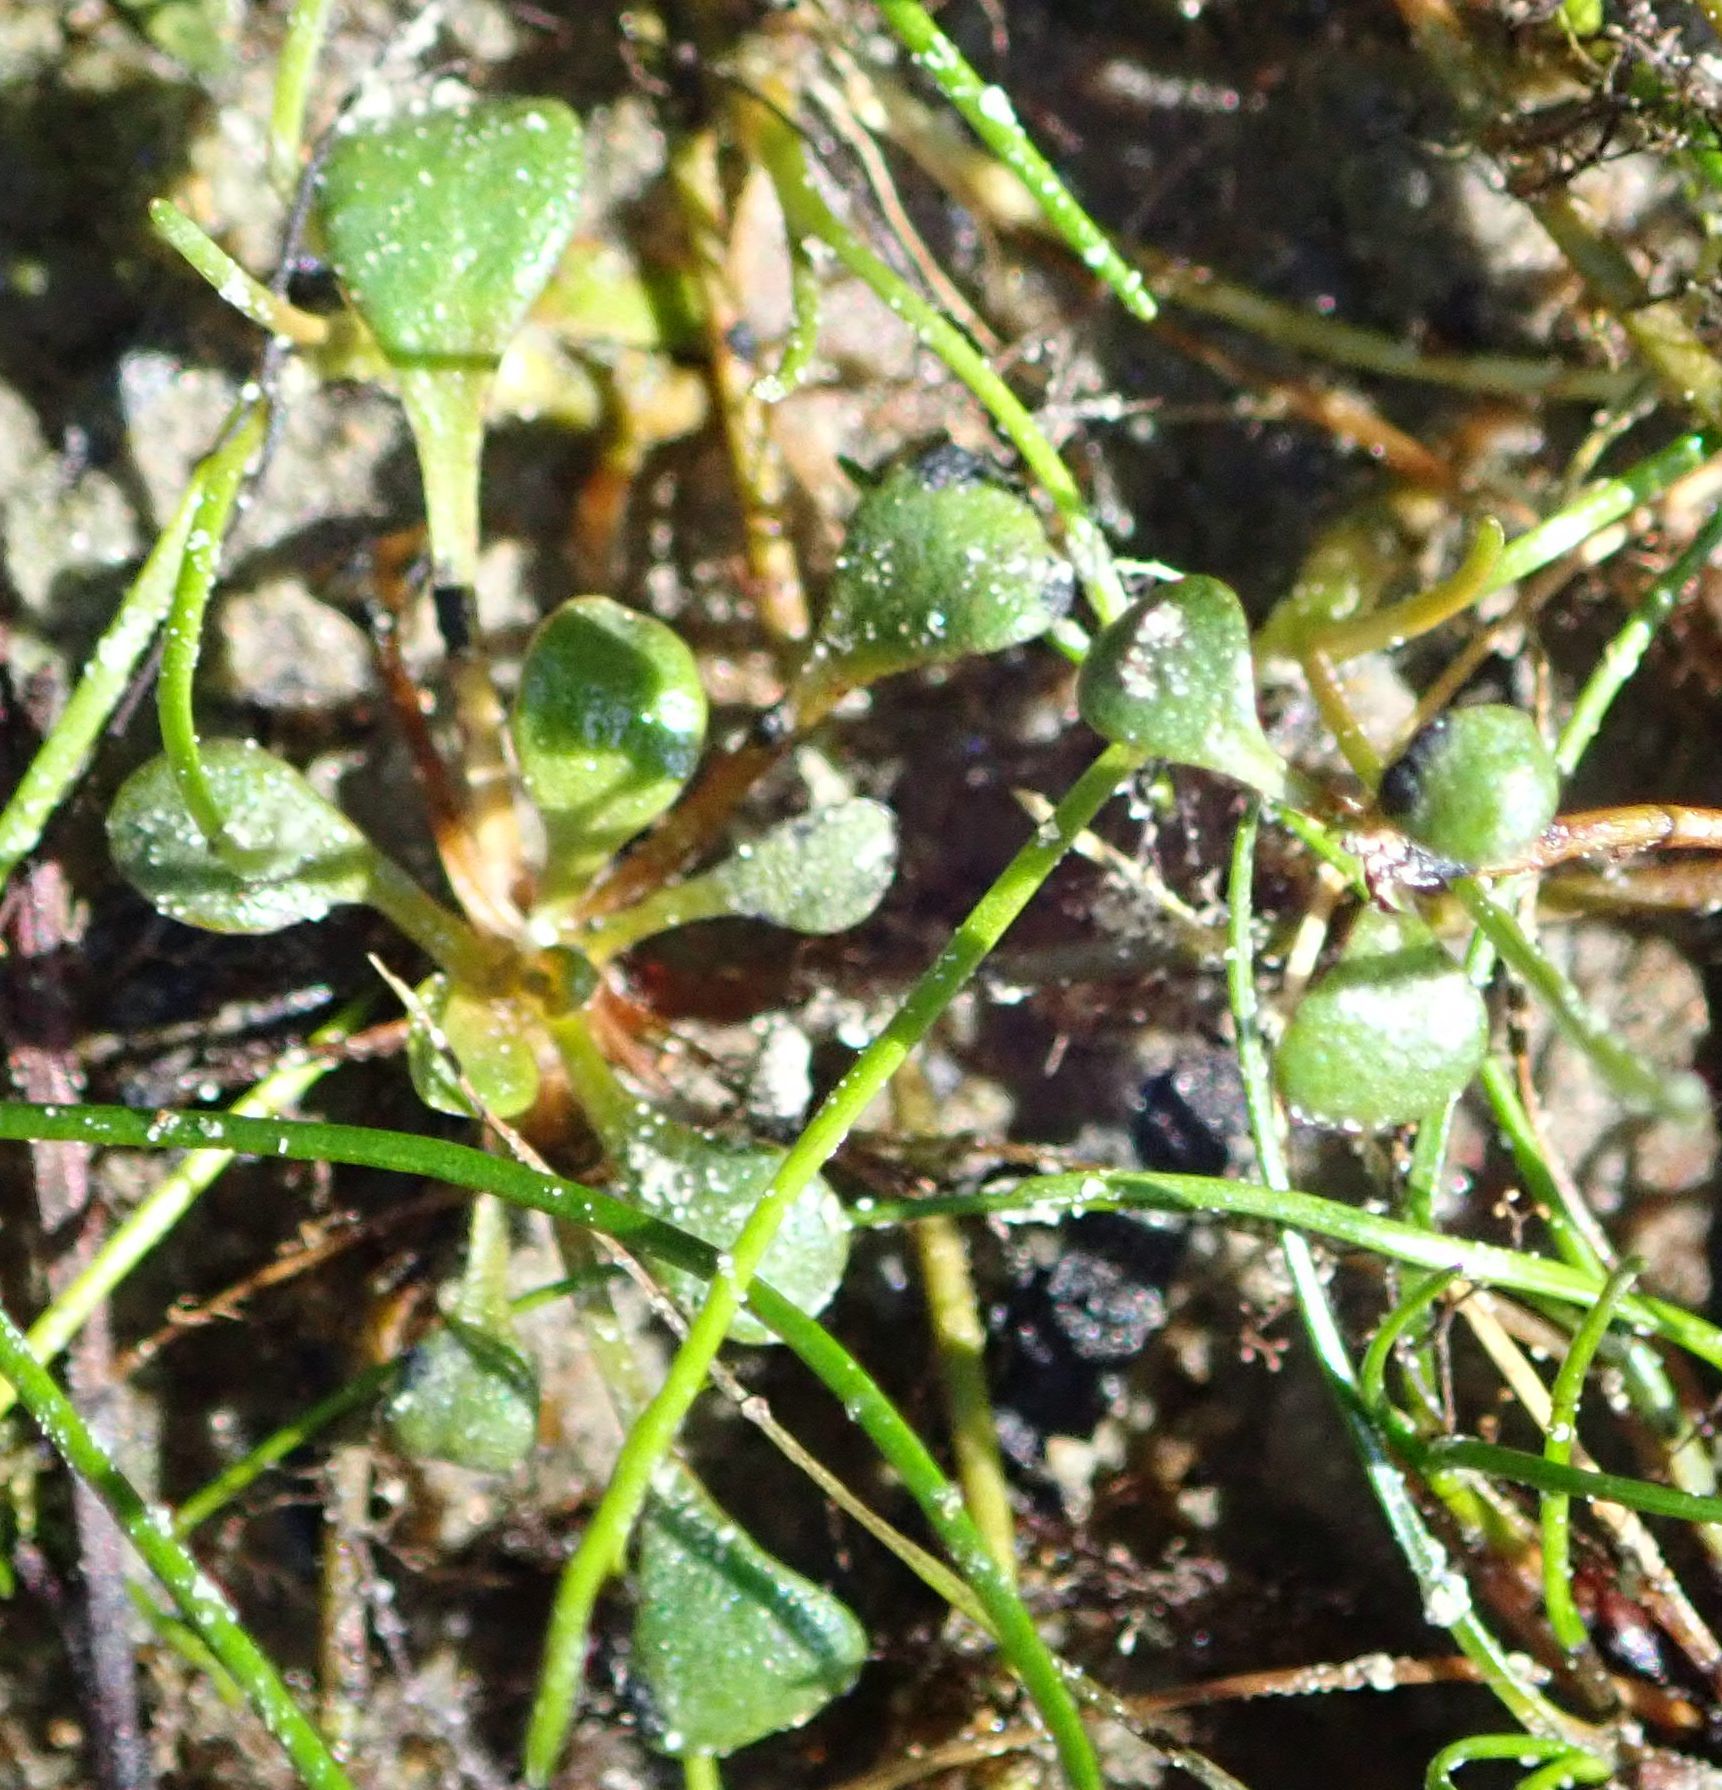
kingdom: Plantae
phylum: Tracheophyta
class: Magnoliopsida
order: Ericales
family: Primulaceae
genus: Samolus
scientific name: Samolus repens
